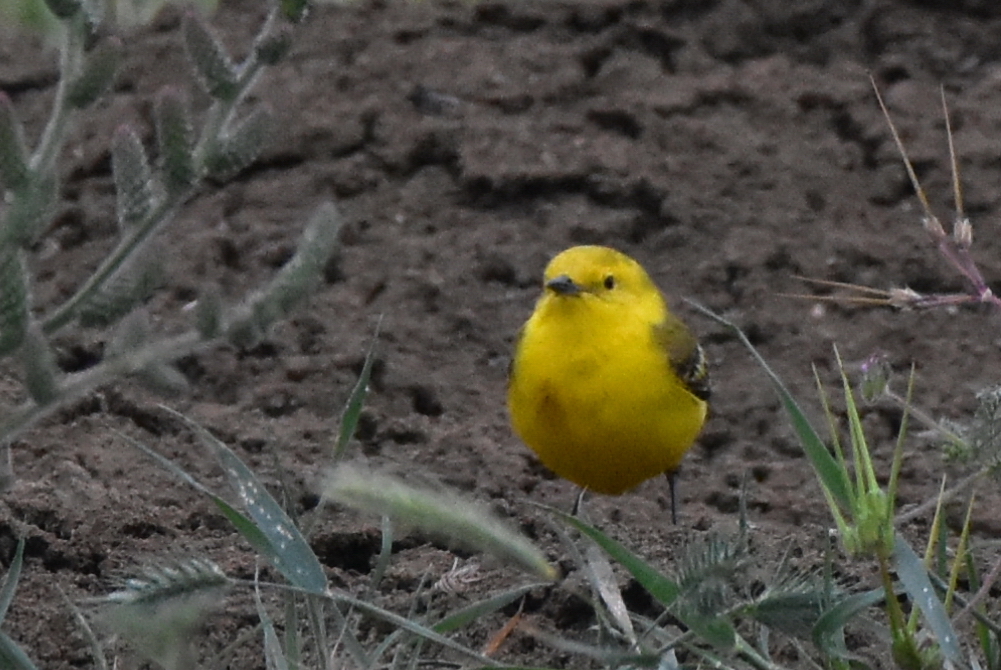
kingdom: Animalia
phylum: Chordata
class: Aves
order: Passeriformes
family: Motacillidae
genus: Motacilla
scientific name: Motacilla flava
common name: Western yellow wagtail
